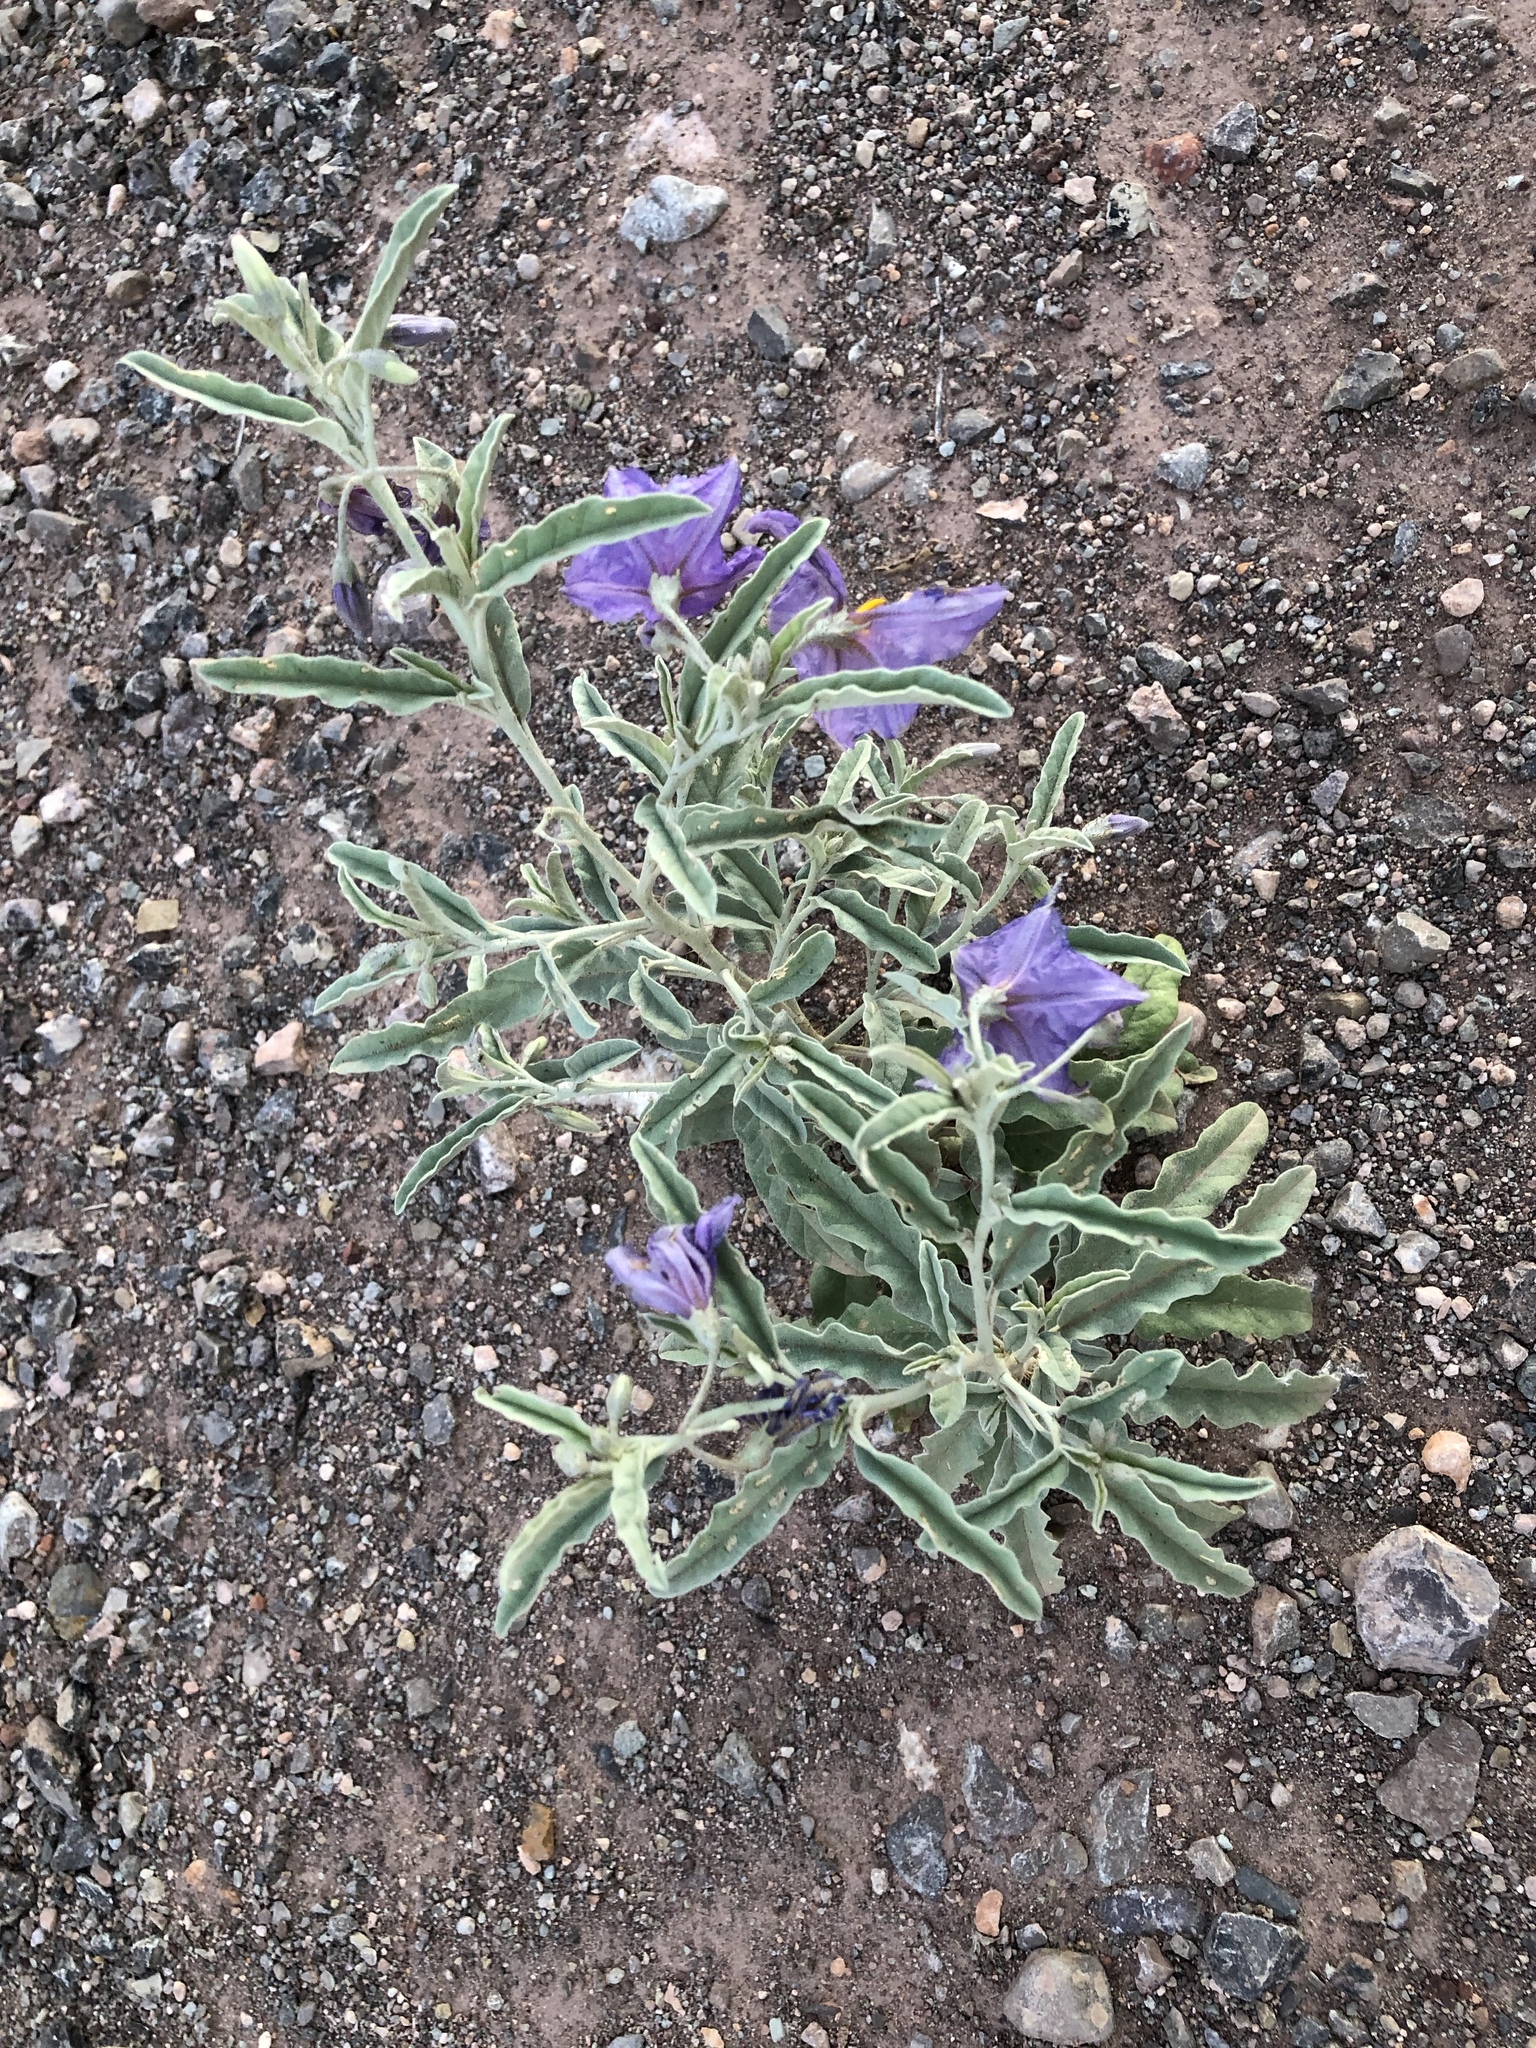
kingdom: Plantae
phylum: Tracheophyta
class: Magnoliopsida
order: Solanales
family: Solanaceae
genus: Solanum
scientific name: Solanum elaeagnifolium
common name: Silverleaf nightshade
